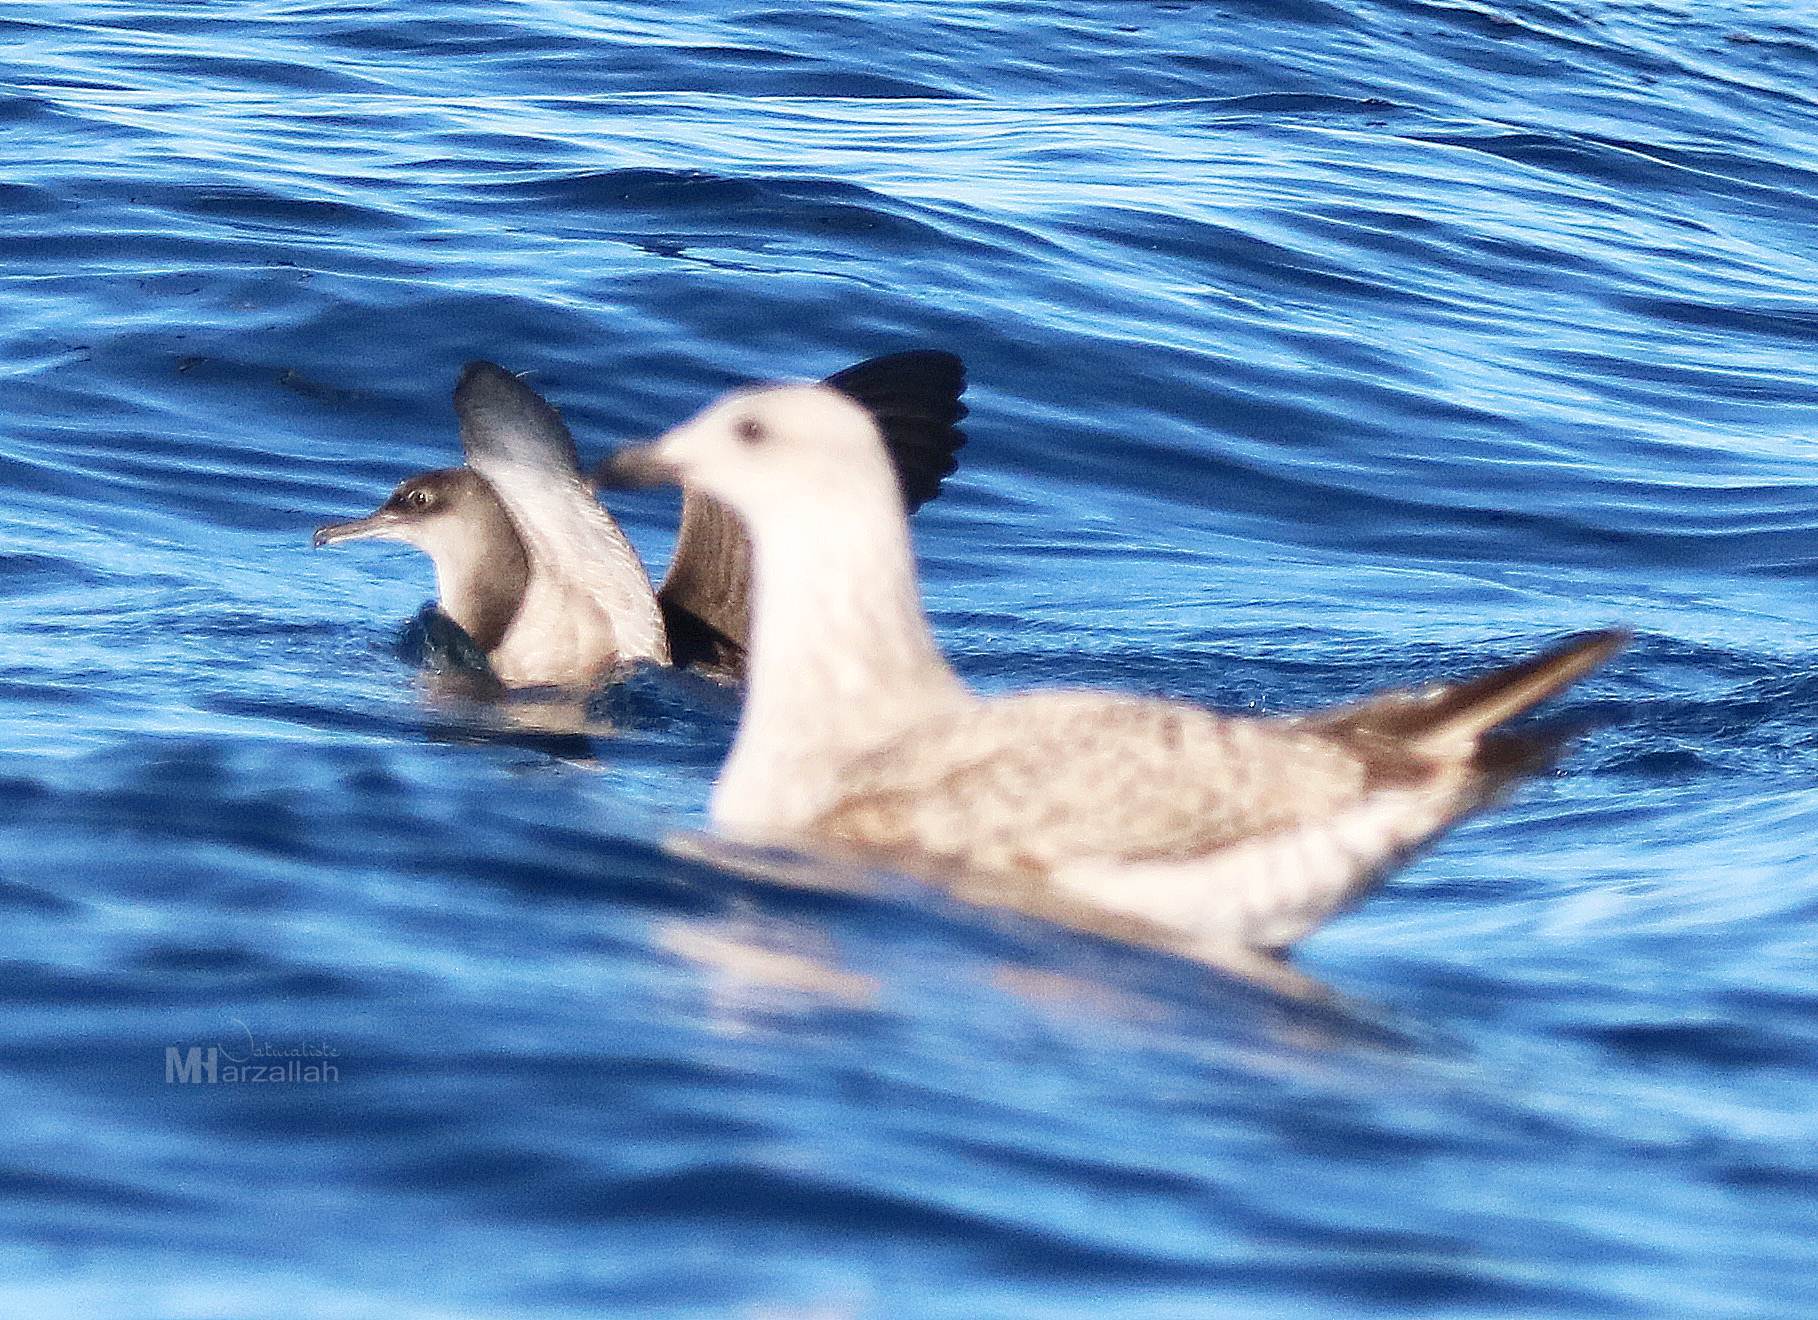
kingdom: Animalia
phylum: Chordata
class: Aves
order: Procellariiformes
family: Procellariidae
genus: Puffinus
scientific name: Puffinus mauretanicus
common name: Balearic shearwater
